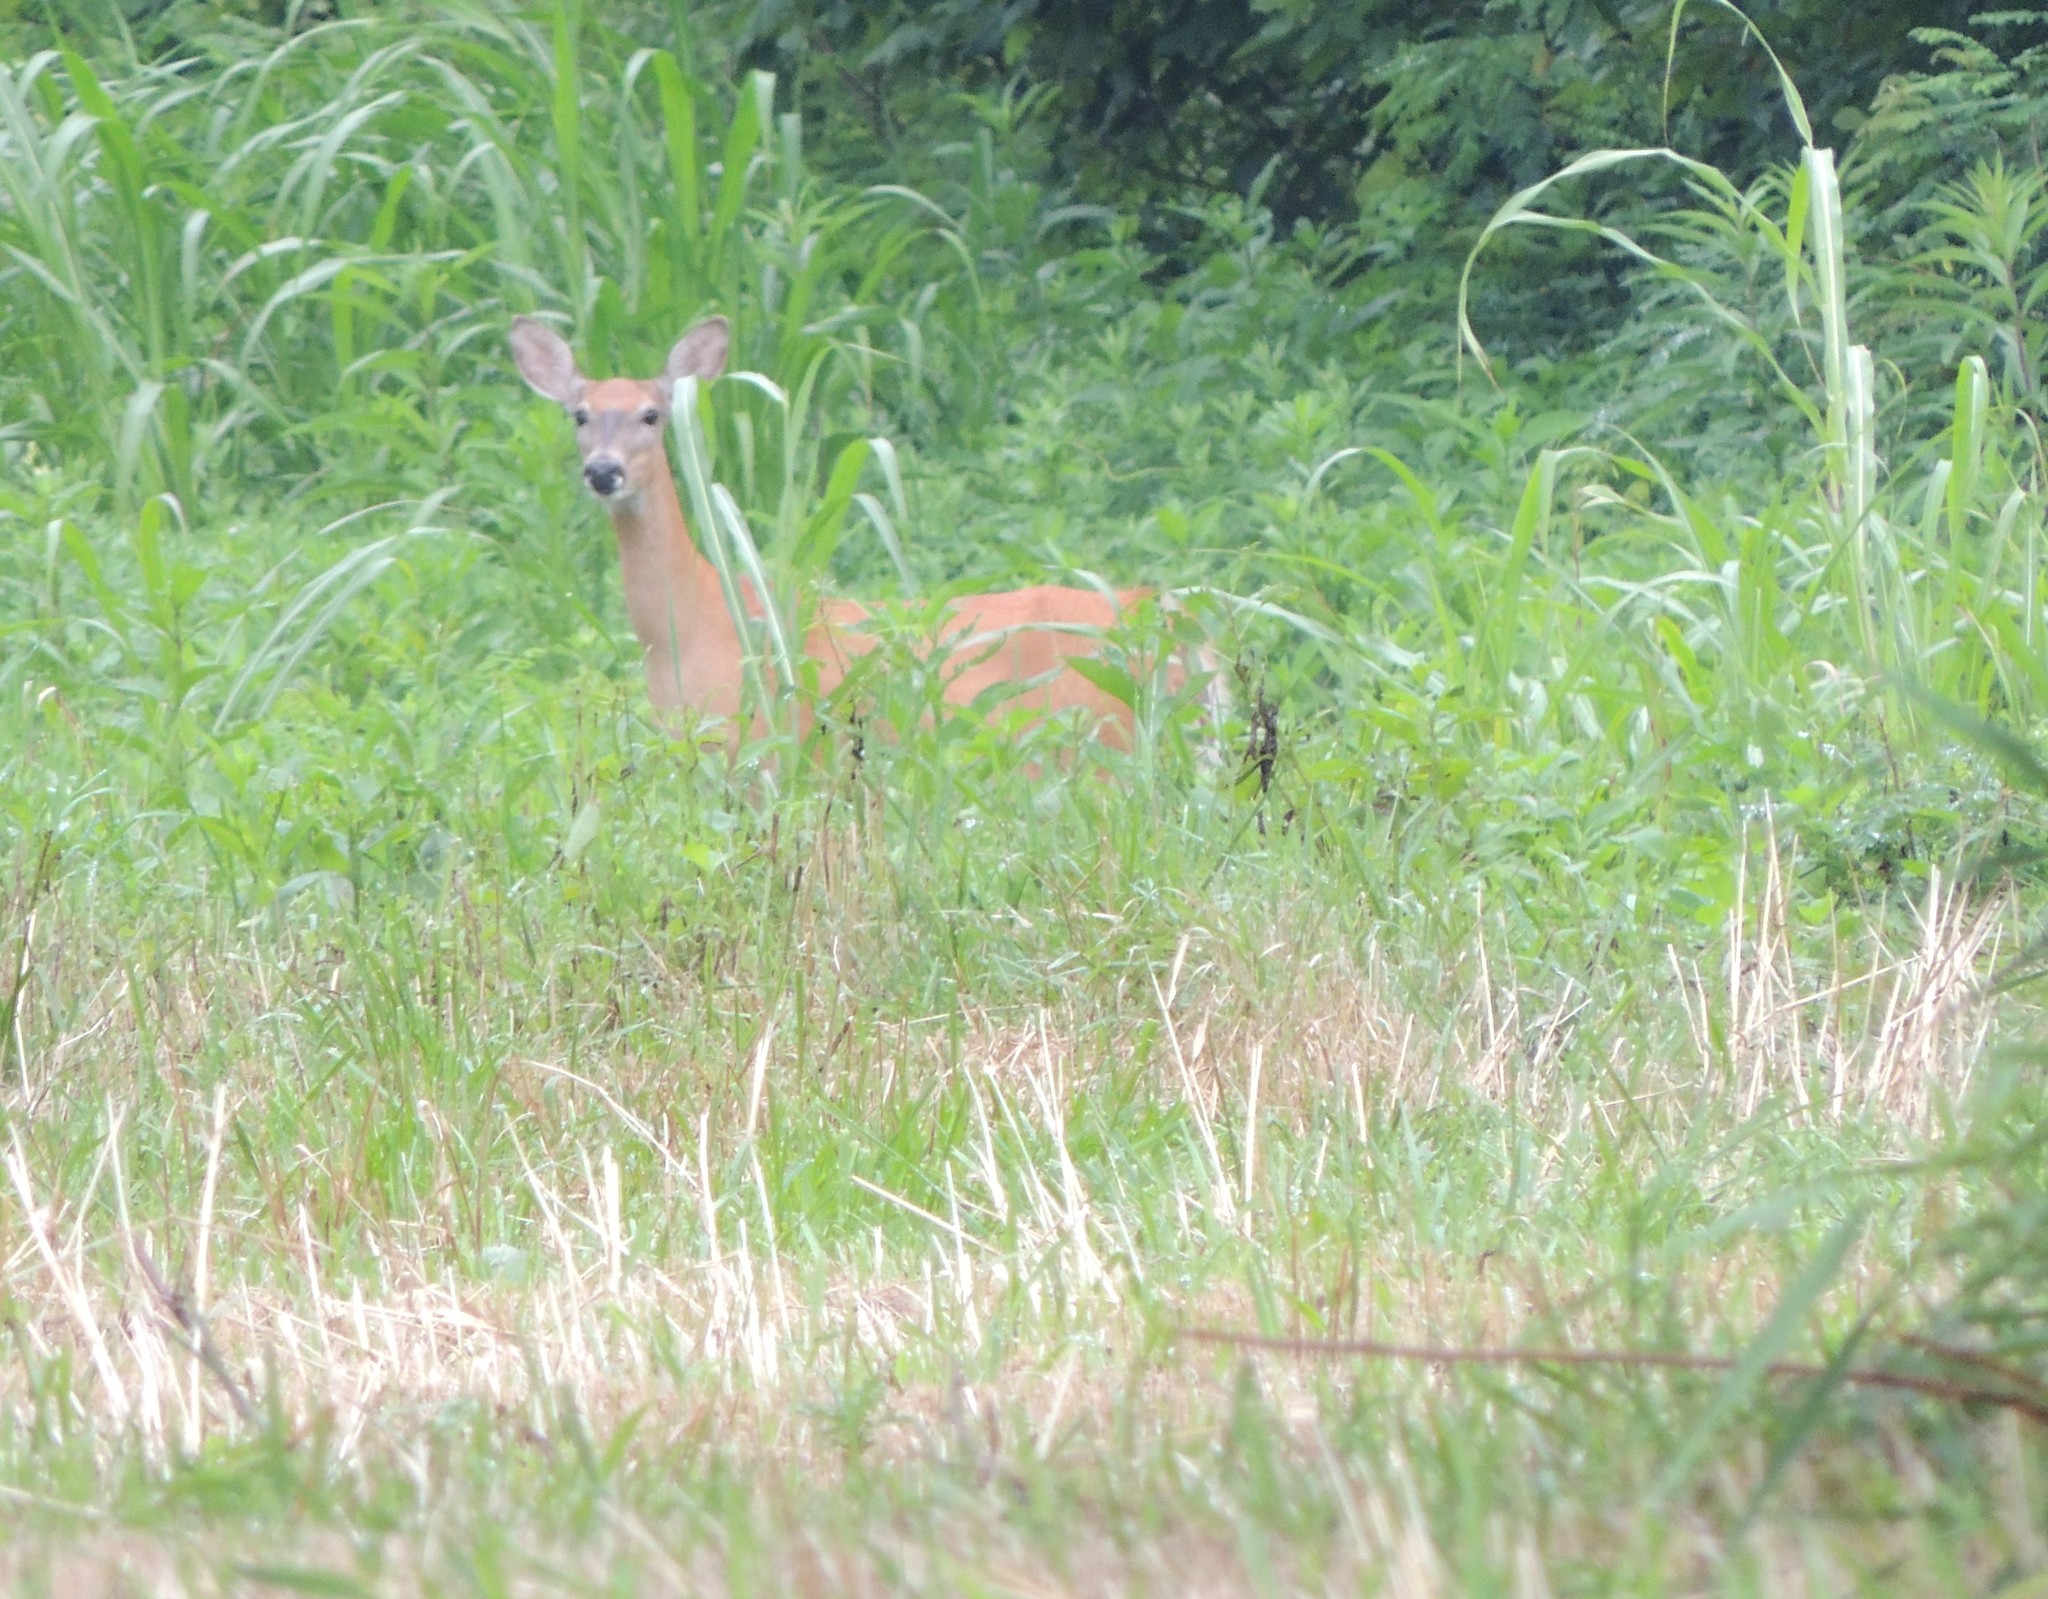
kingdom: Animalia
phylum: Chordata
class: Mammalia
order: Artiodactyla
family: Cervidae
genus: Odocoileus
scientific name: Odocoileus virginianus
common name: White-tailed deer
